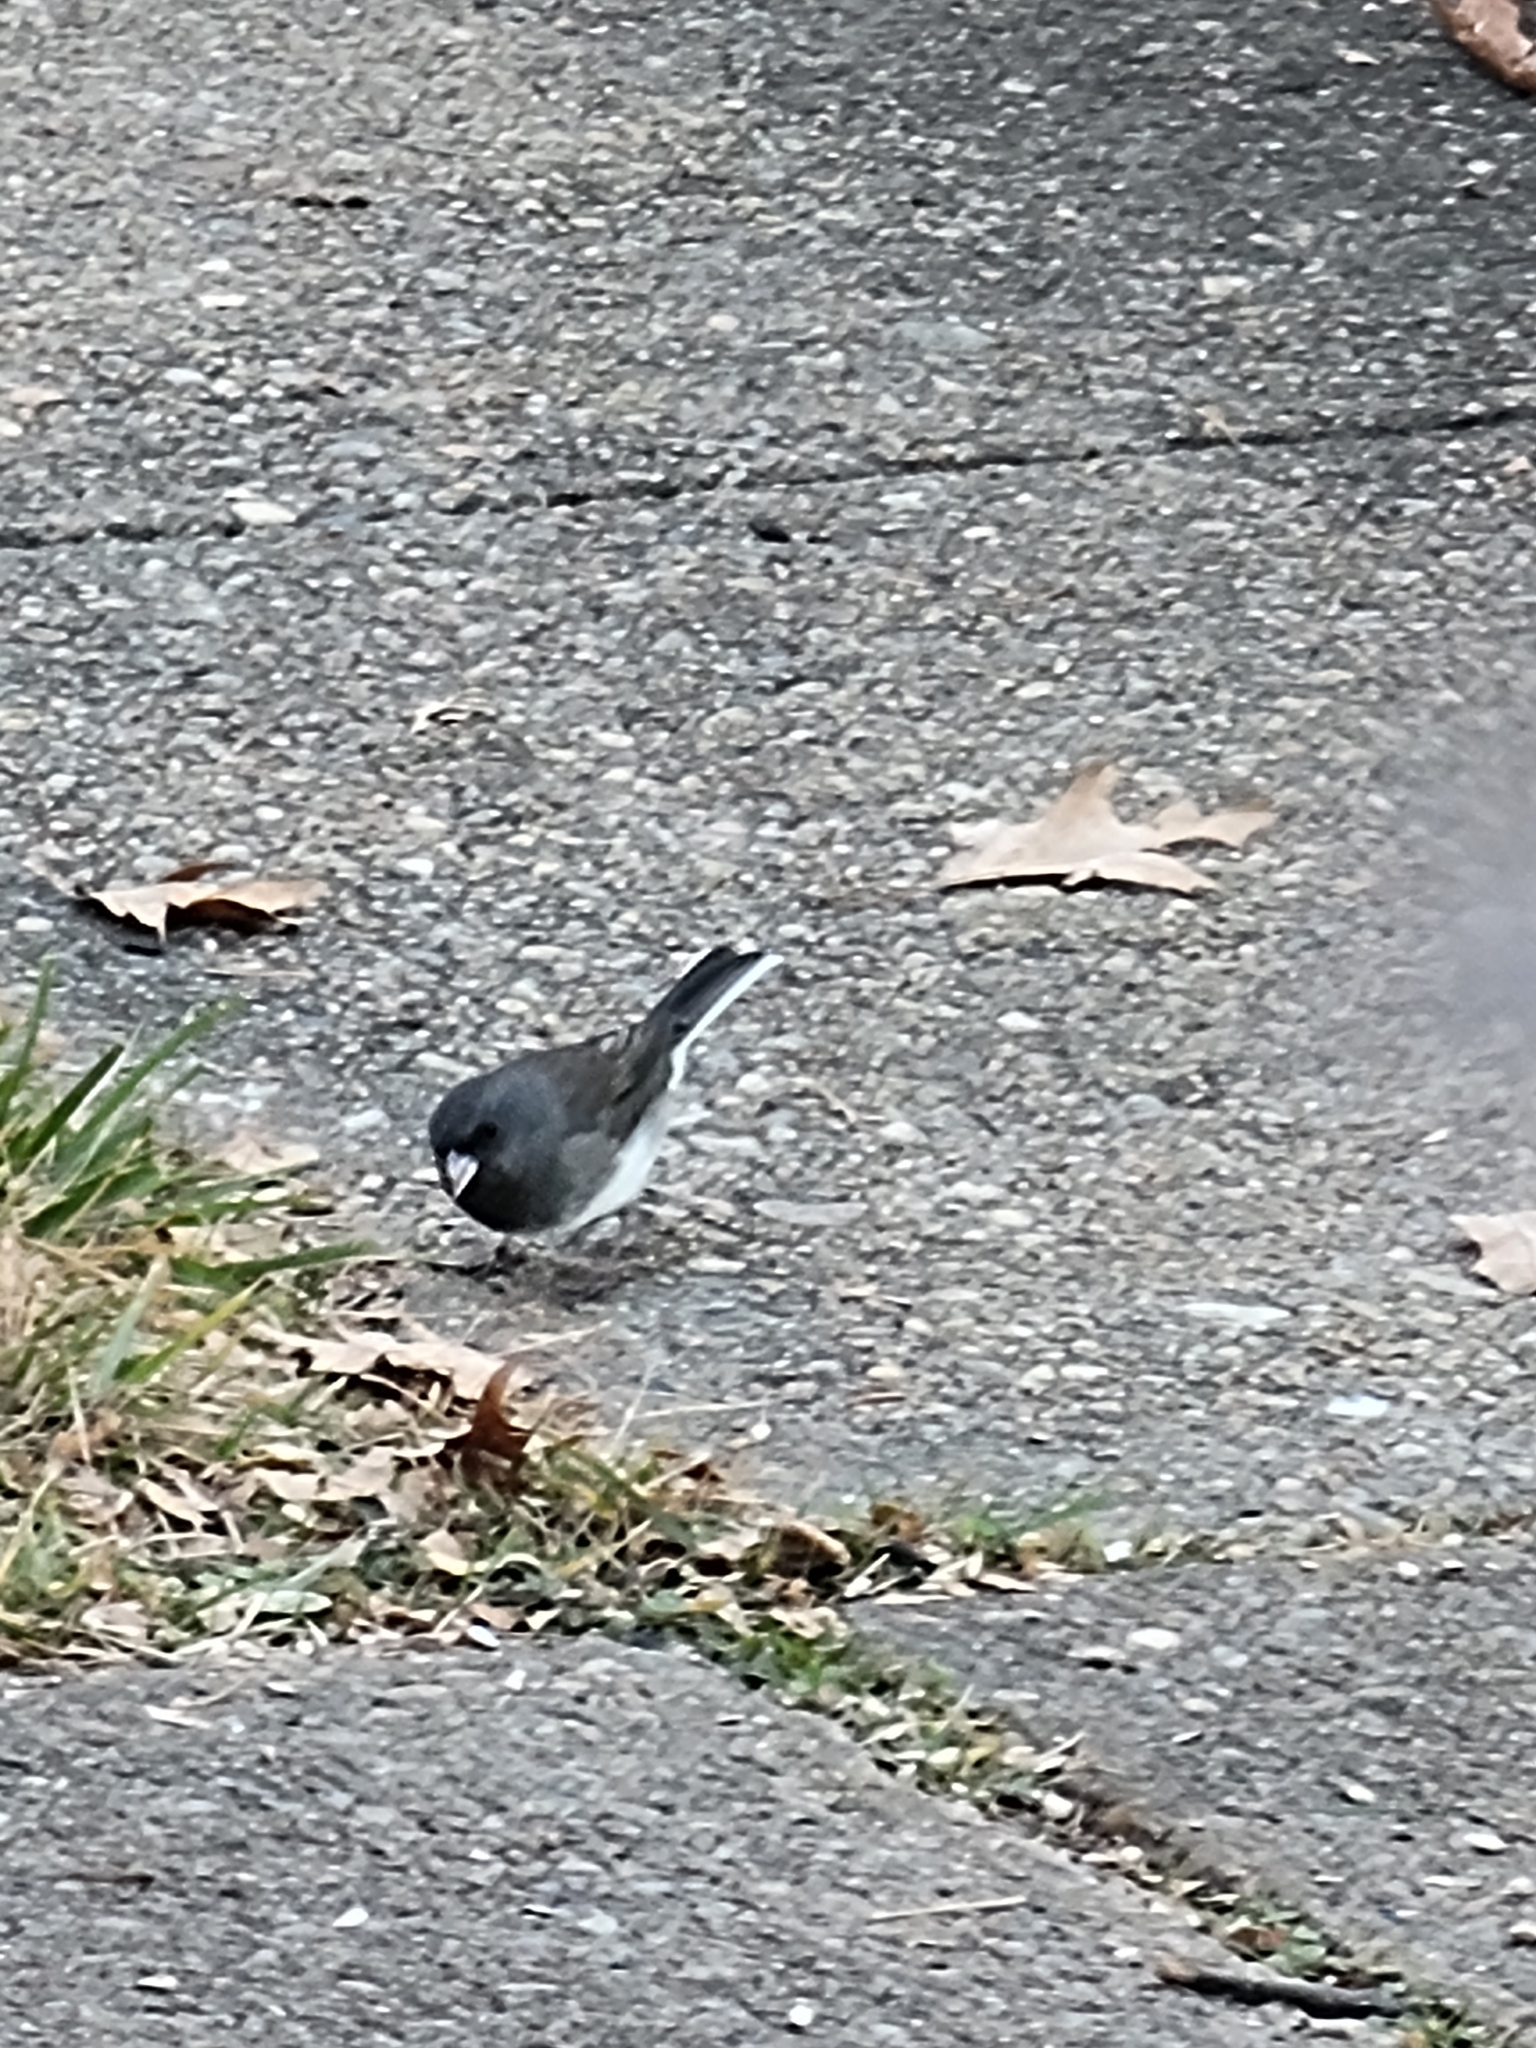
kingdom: Animalia
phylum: Chordata
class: Aves
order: Passeriformes
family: Passerellidae
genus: Junco
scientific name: Junco hyemalis
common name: Dark-eyed junco
